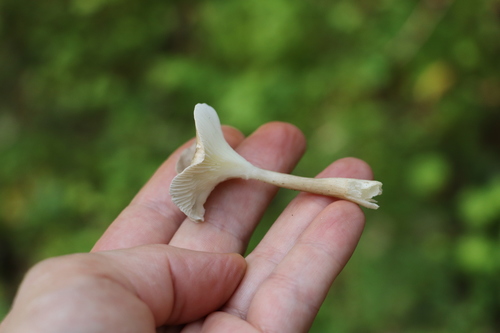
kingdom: Fungi
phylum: Basidiomycota
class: Agaricomycetes
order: Agaricales
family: Hygrophoraceae
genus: Ampulloclitocybe
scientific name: Ampulloclitocybe clavipes
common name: Club foot
